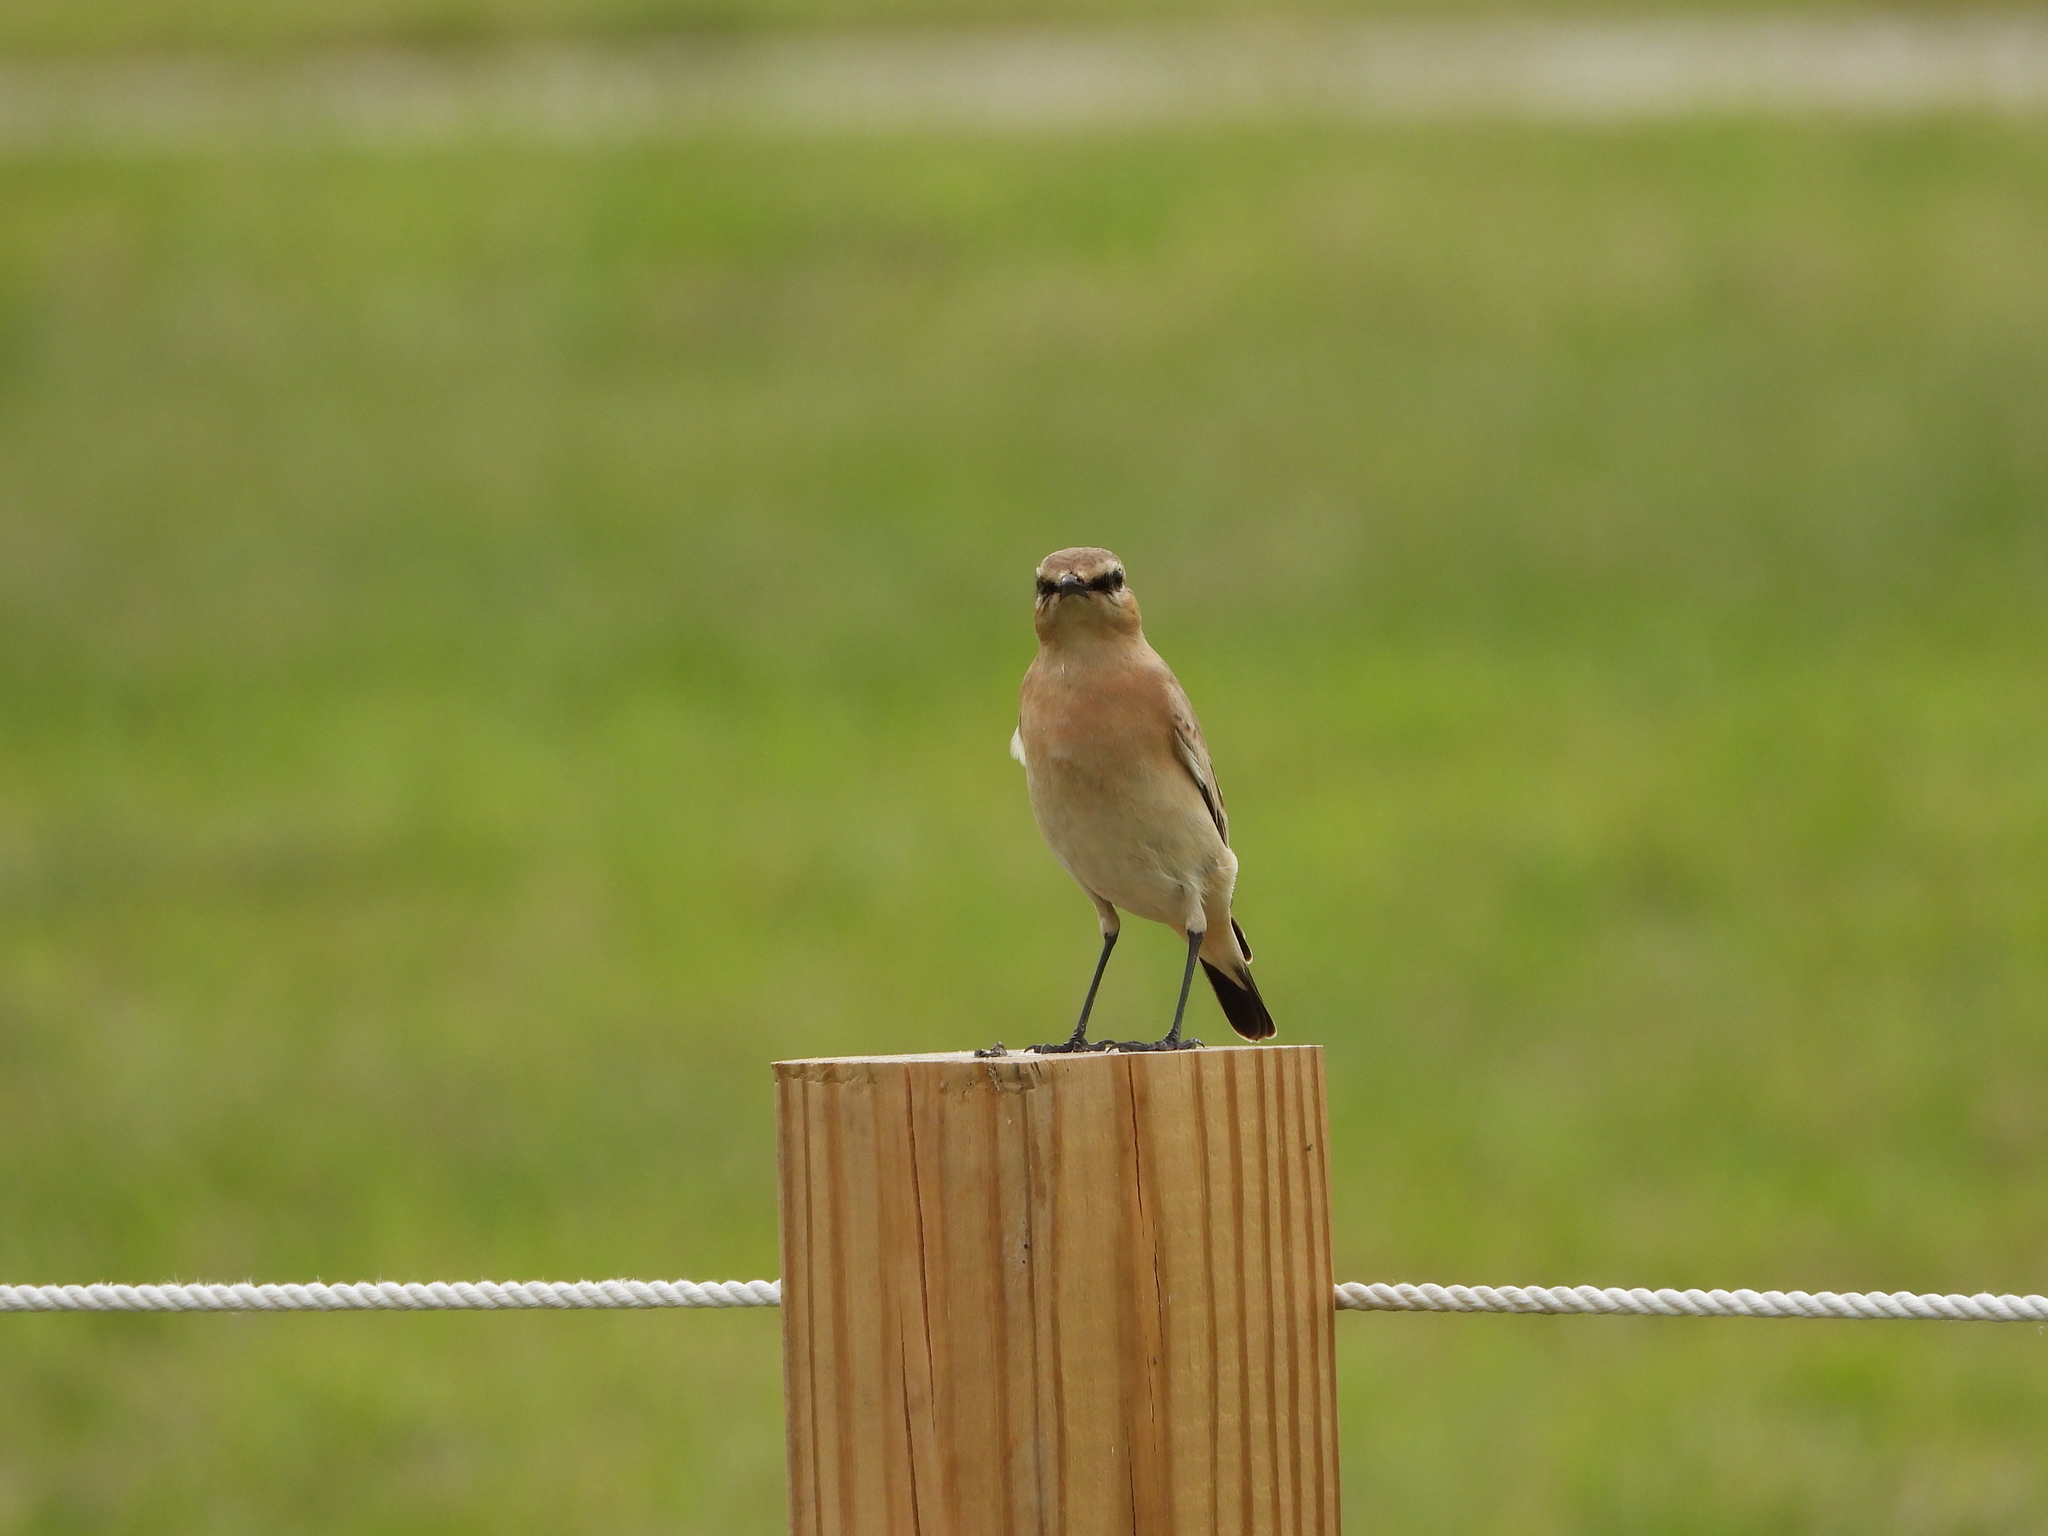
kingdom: Animalia
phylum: Chordata
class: Aves
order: Passeriformes
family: Muscicapidae
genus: Oenanthe
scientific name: Oenanthe isabellina
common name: Isabelline wheatear
